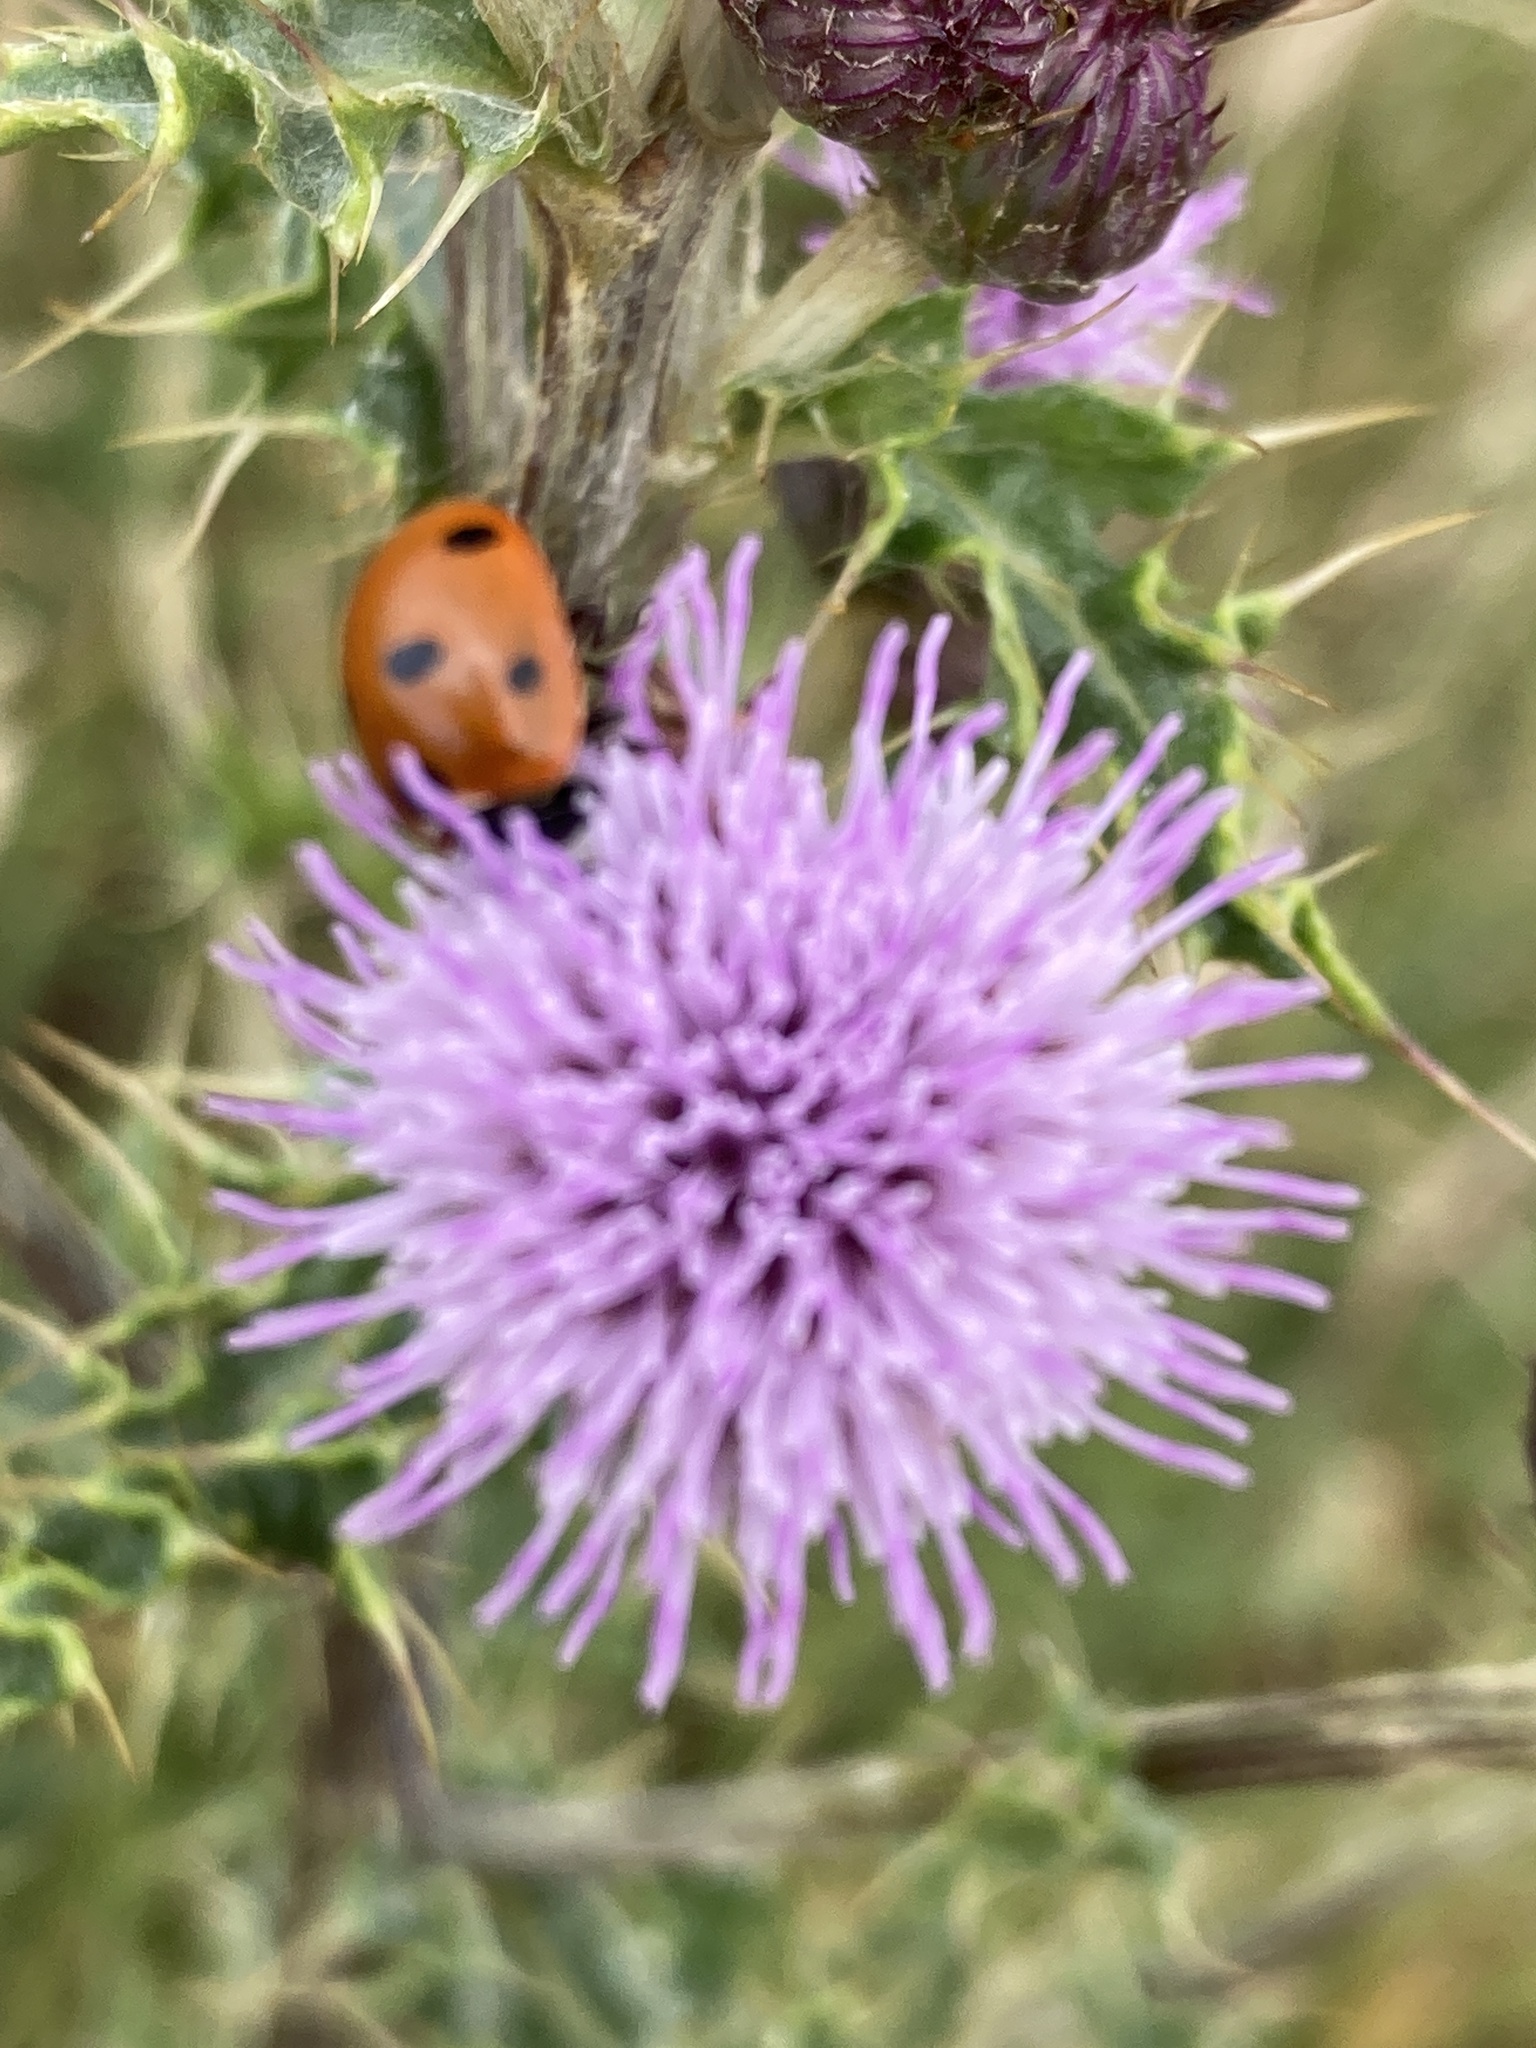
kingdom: Animalia
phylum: Arthropoda
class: Insecta
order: Coleoptera
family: Coccinellidae
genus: Coccinella
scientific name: Coccinella septempunctata
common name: Sevenspotted lady beetle
